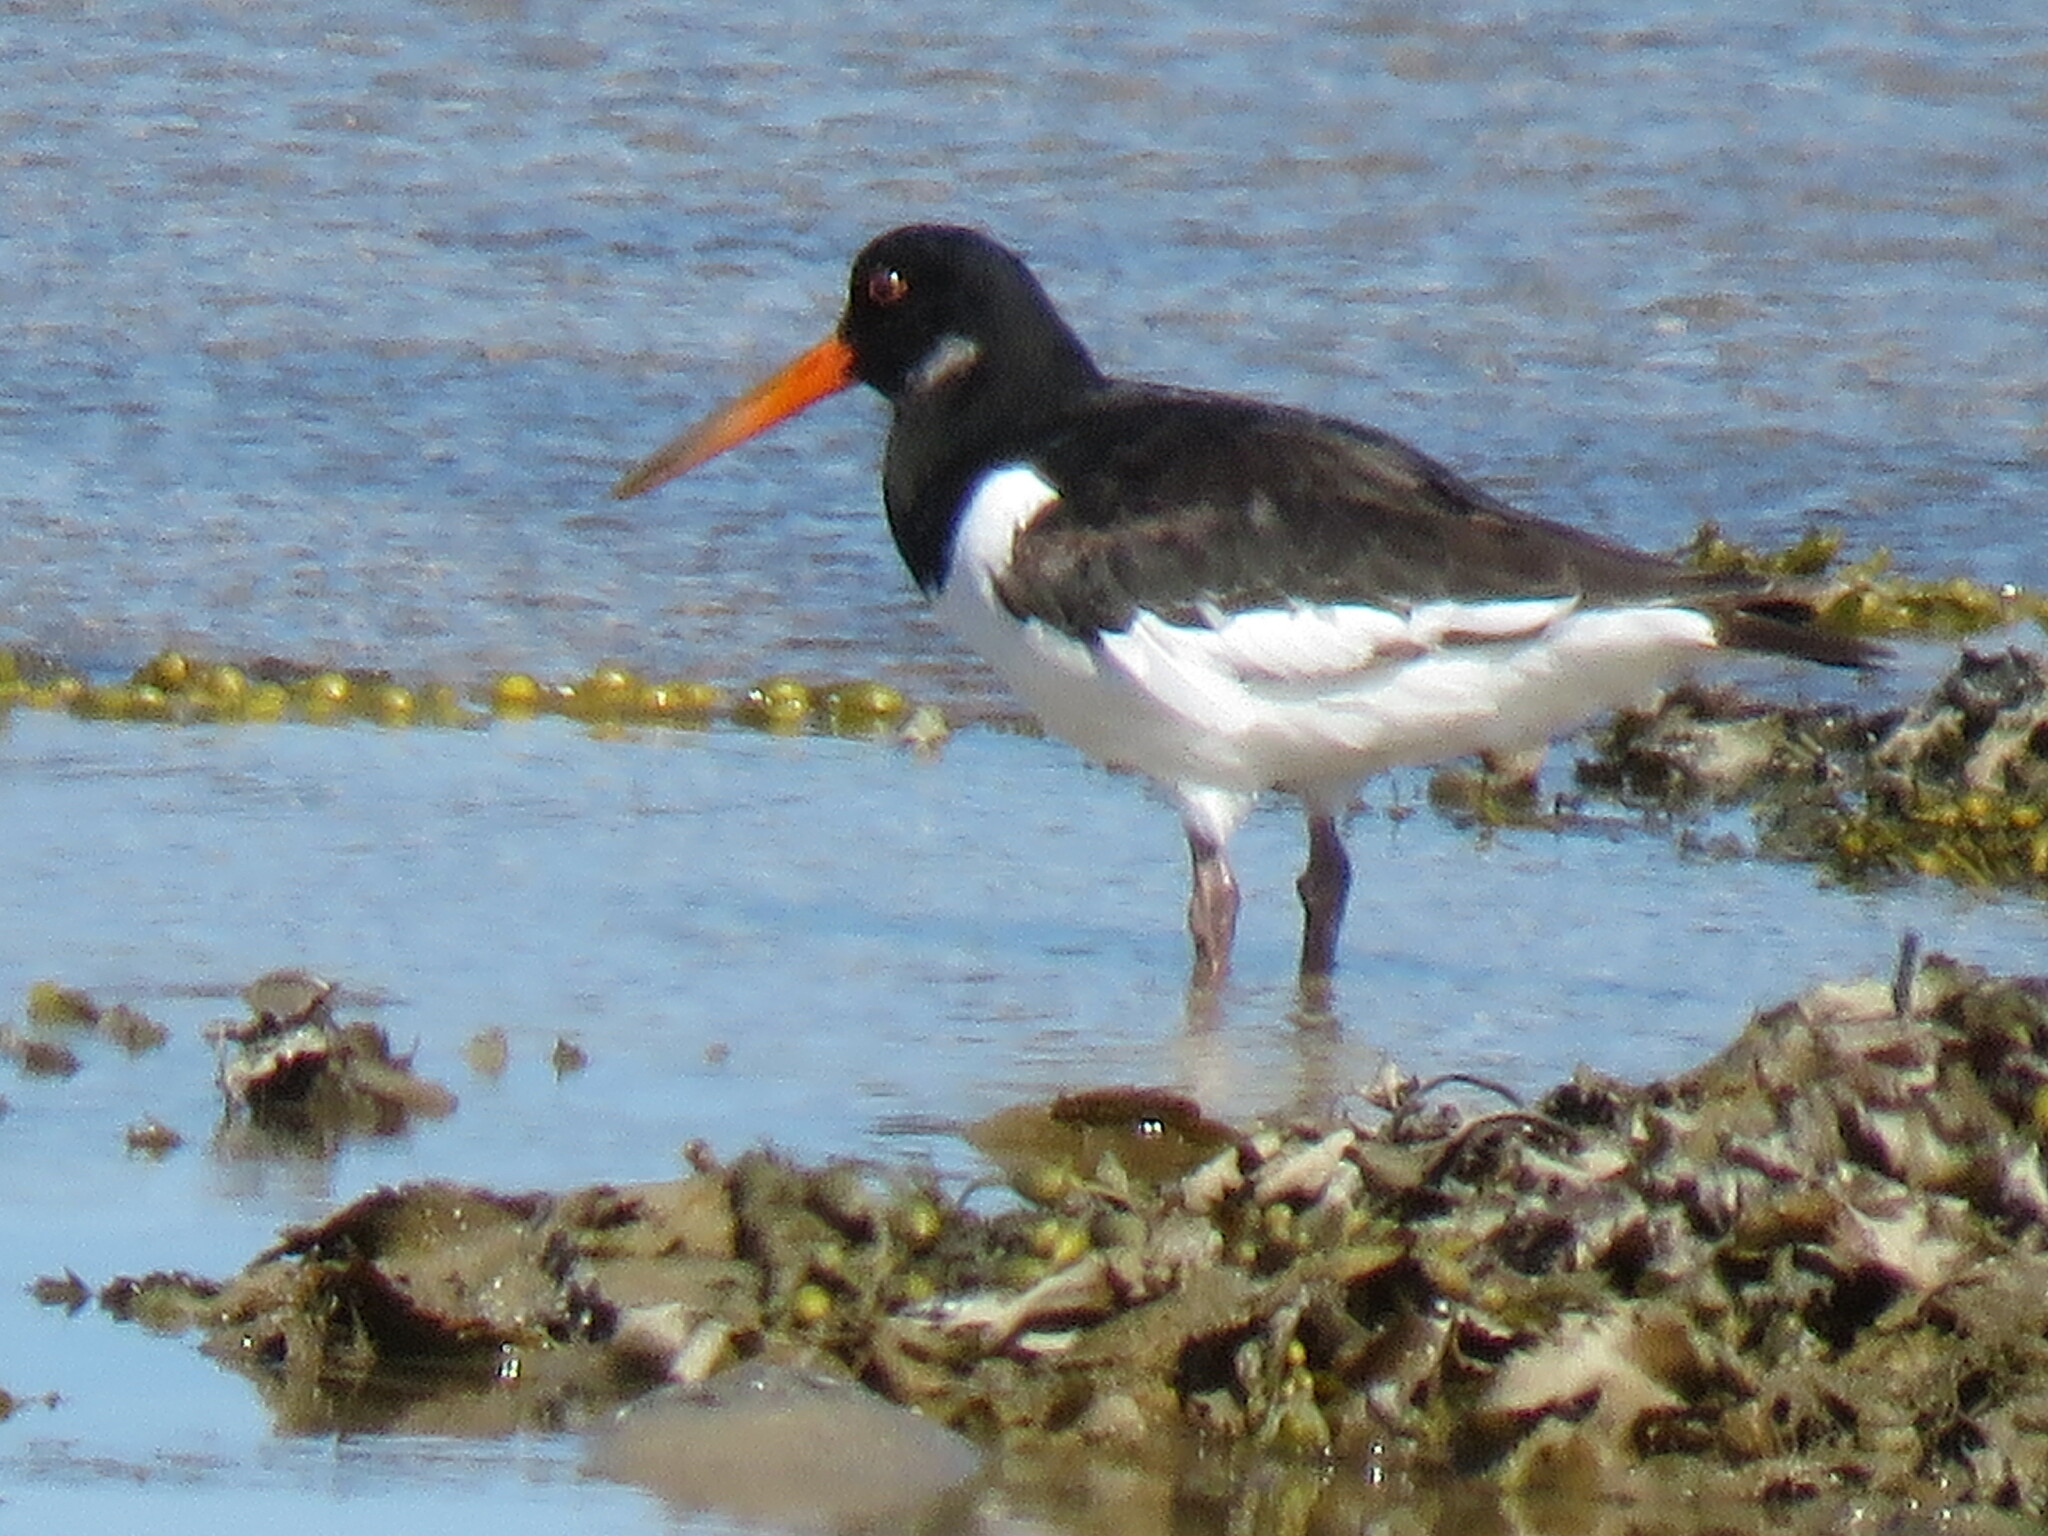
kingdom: Animalia
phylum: Chordata
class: Aves
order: Charadriiformes
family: Haematopodidae
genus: Haematopus
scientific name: Haematopus ostralegus
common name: Eurasian oystercatcher
